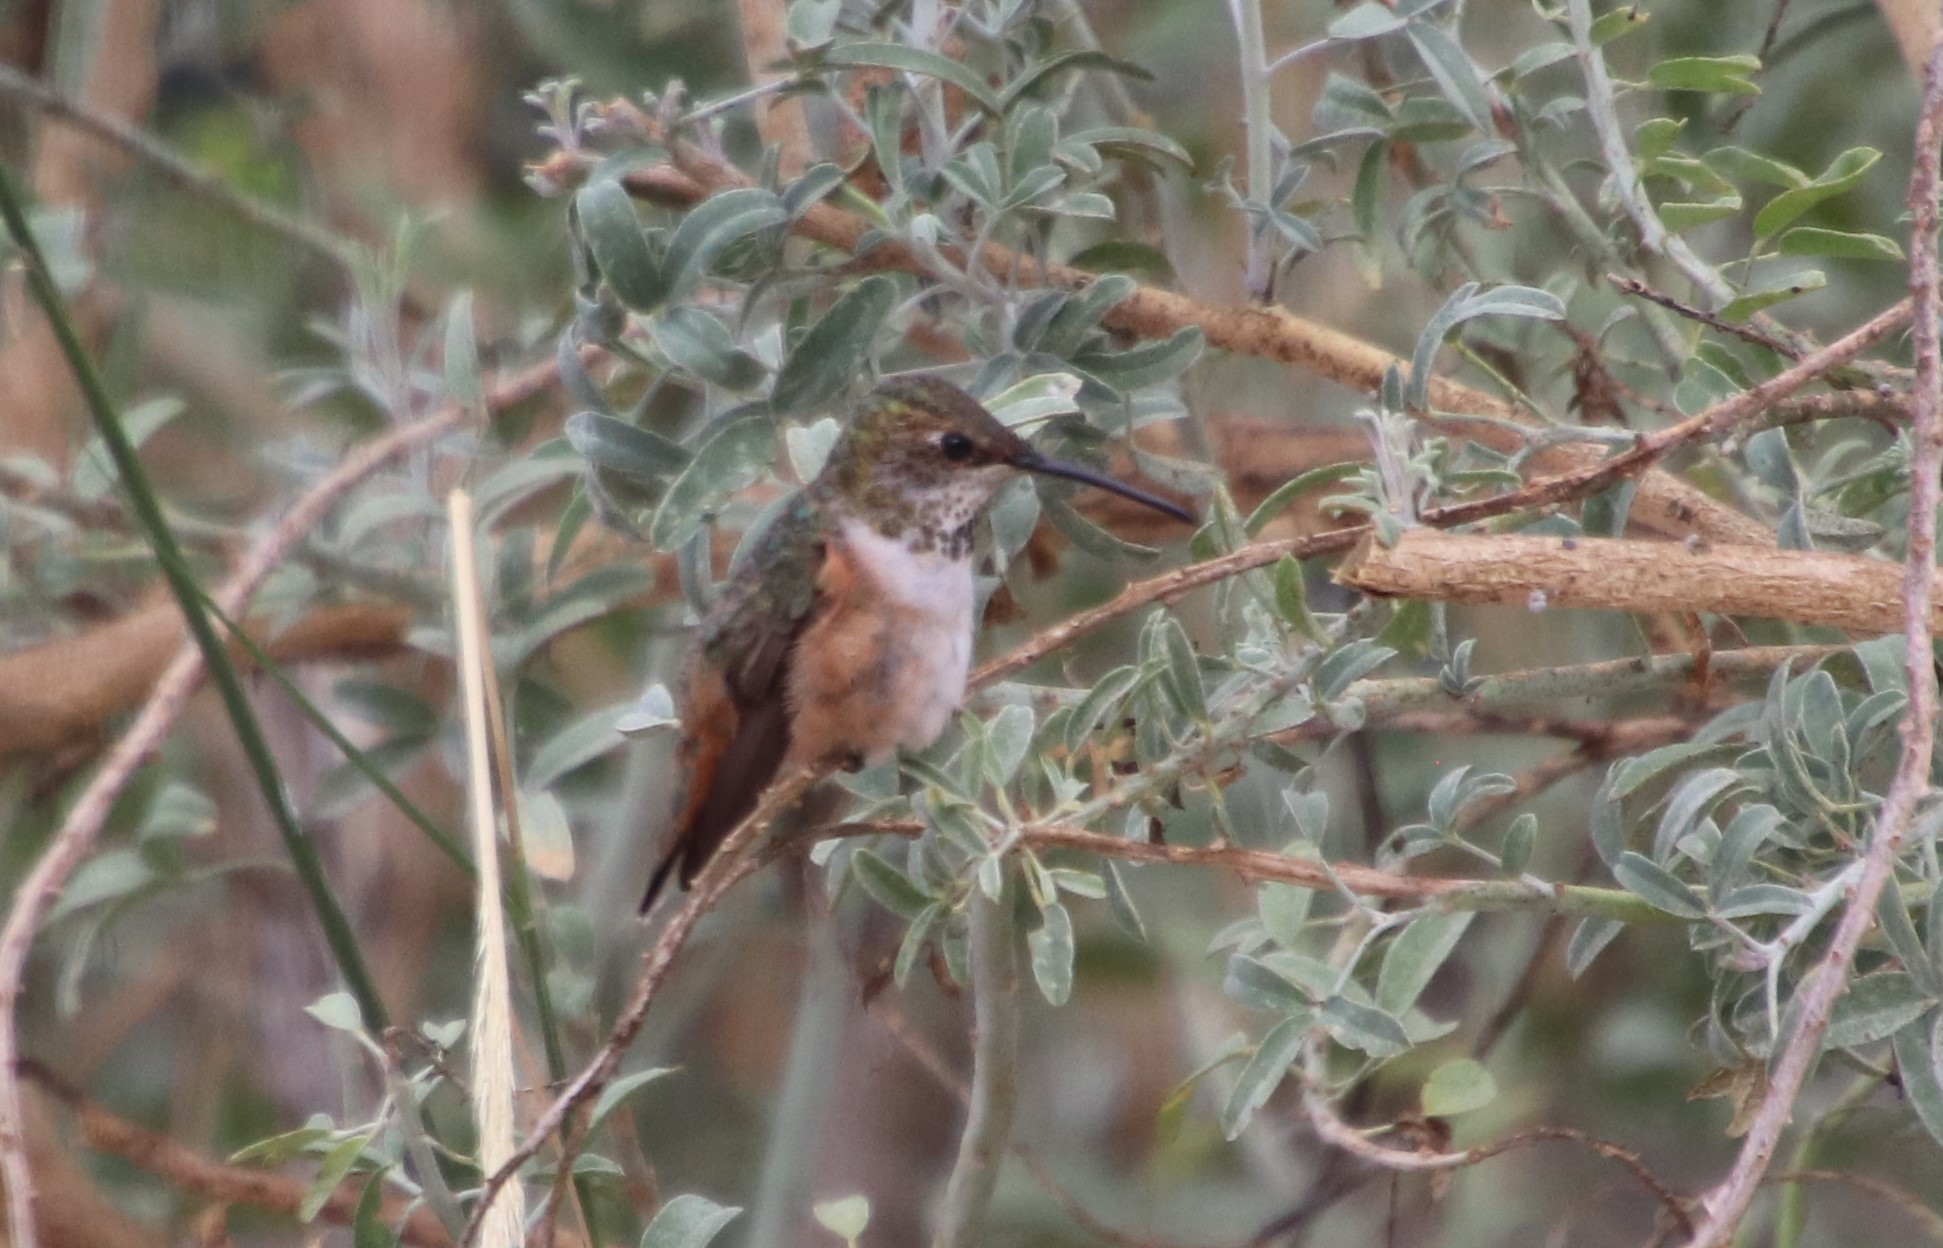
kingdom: Animalia
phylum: Chordata
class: Aves
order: Apodiformes
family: Trochilidae
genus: Selasphorus
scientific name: Selasphorus
